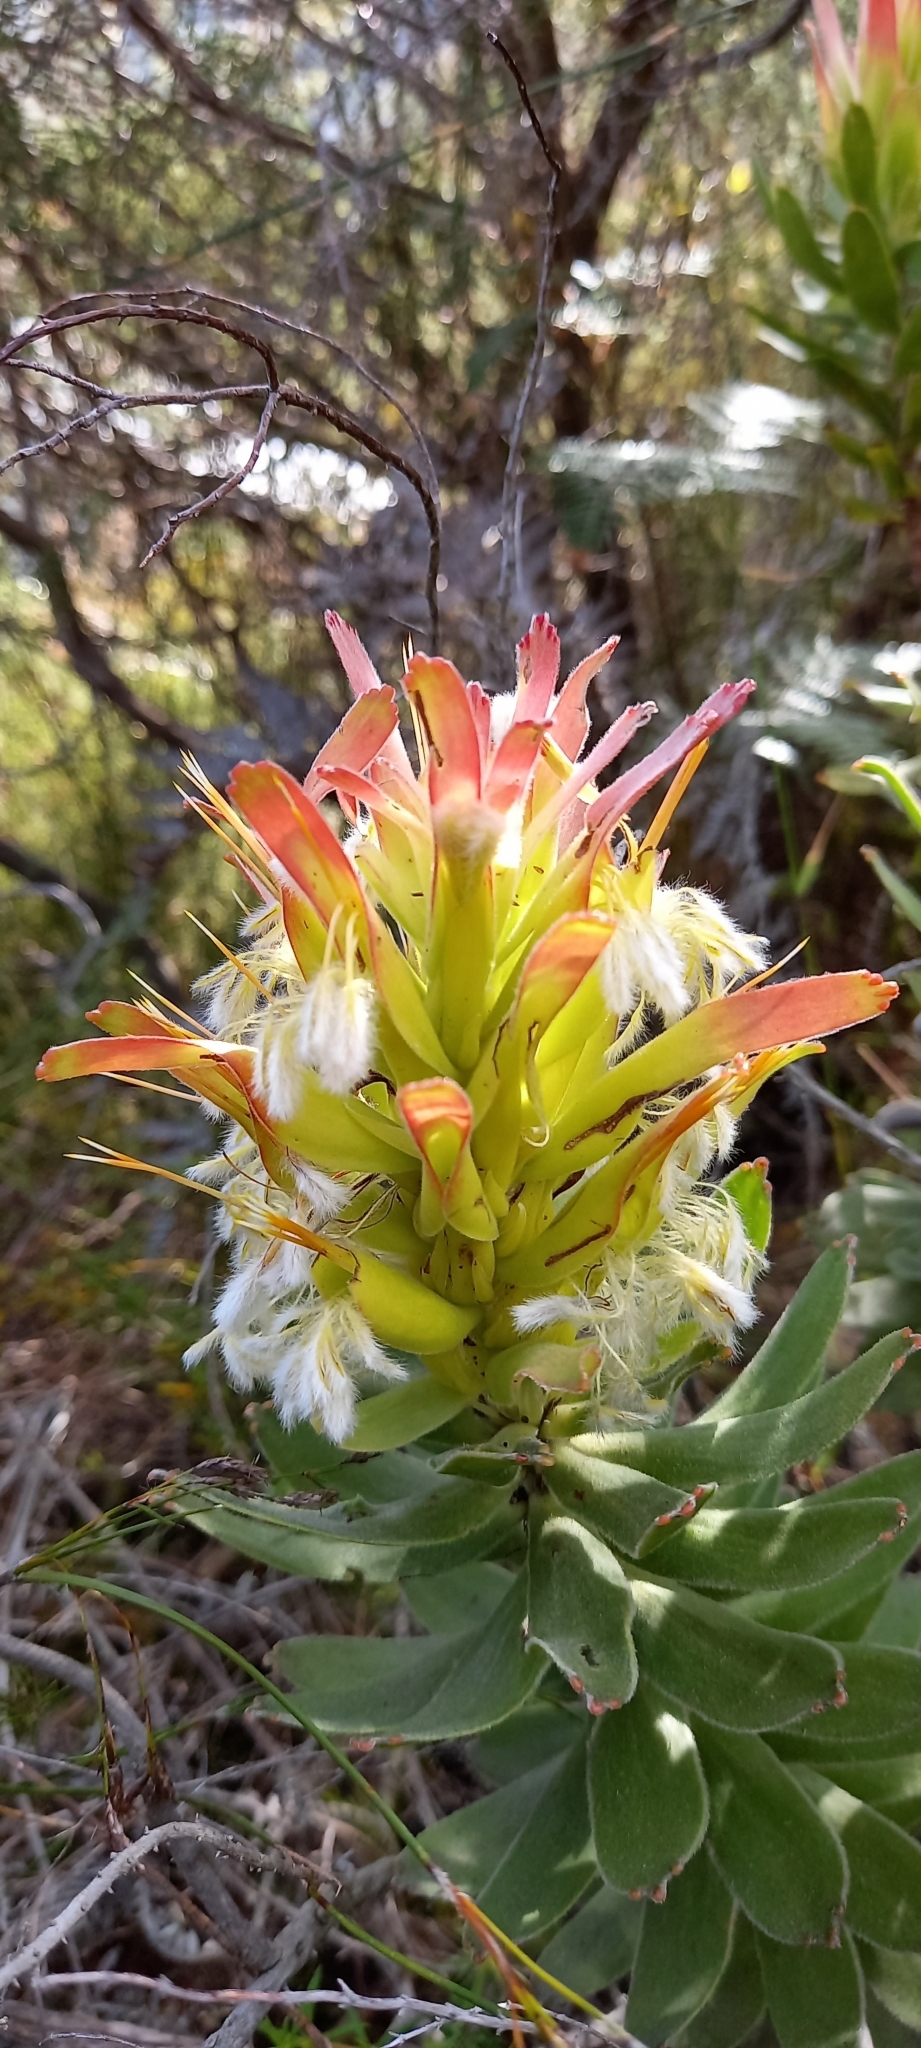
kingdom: Plantae
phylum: Tracheophyta
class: Magnoliopsida
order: Proteales
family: Proteaceae
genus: Mimetes
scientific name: Mimetes cucullatus
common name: Common pagoda
